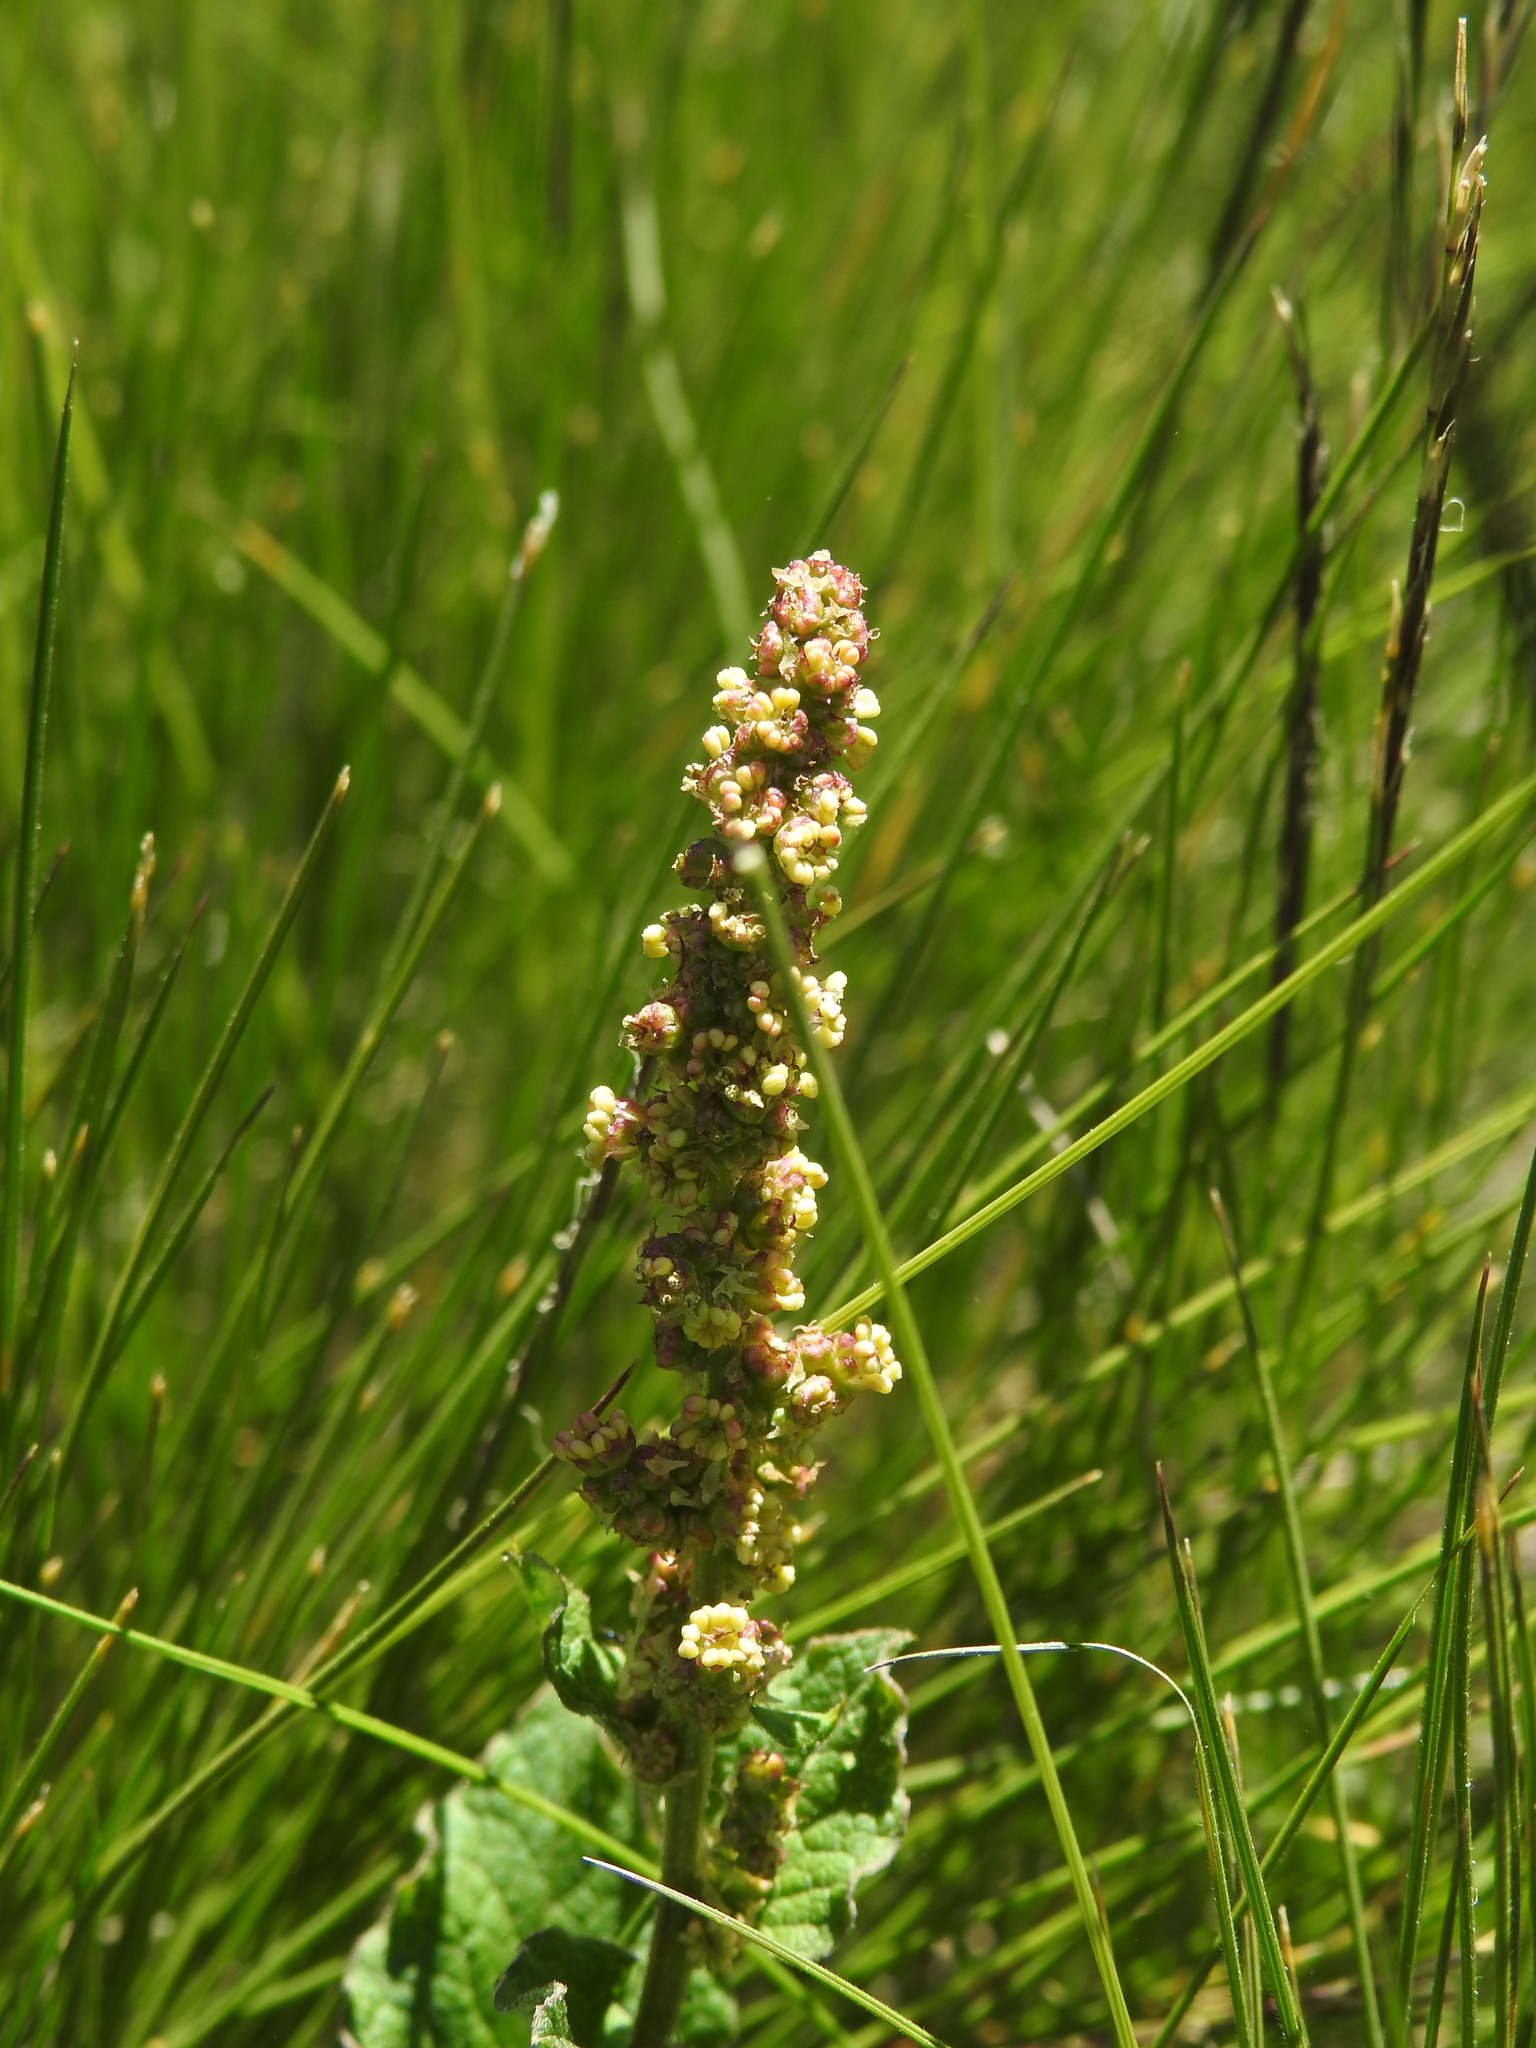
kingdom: Plantae
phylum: Tracheophyta
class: Magnoliopsida
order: Caryophyllales
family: Amaranthaceae
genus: Blitum
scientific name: Blitum bonus-henricus
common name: Good king henry
